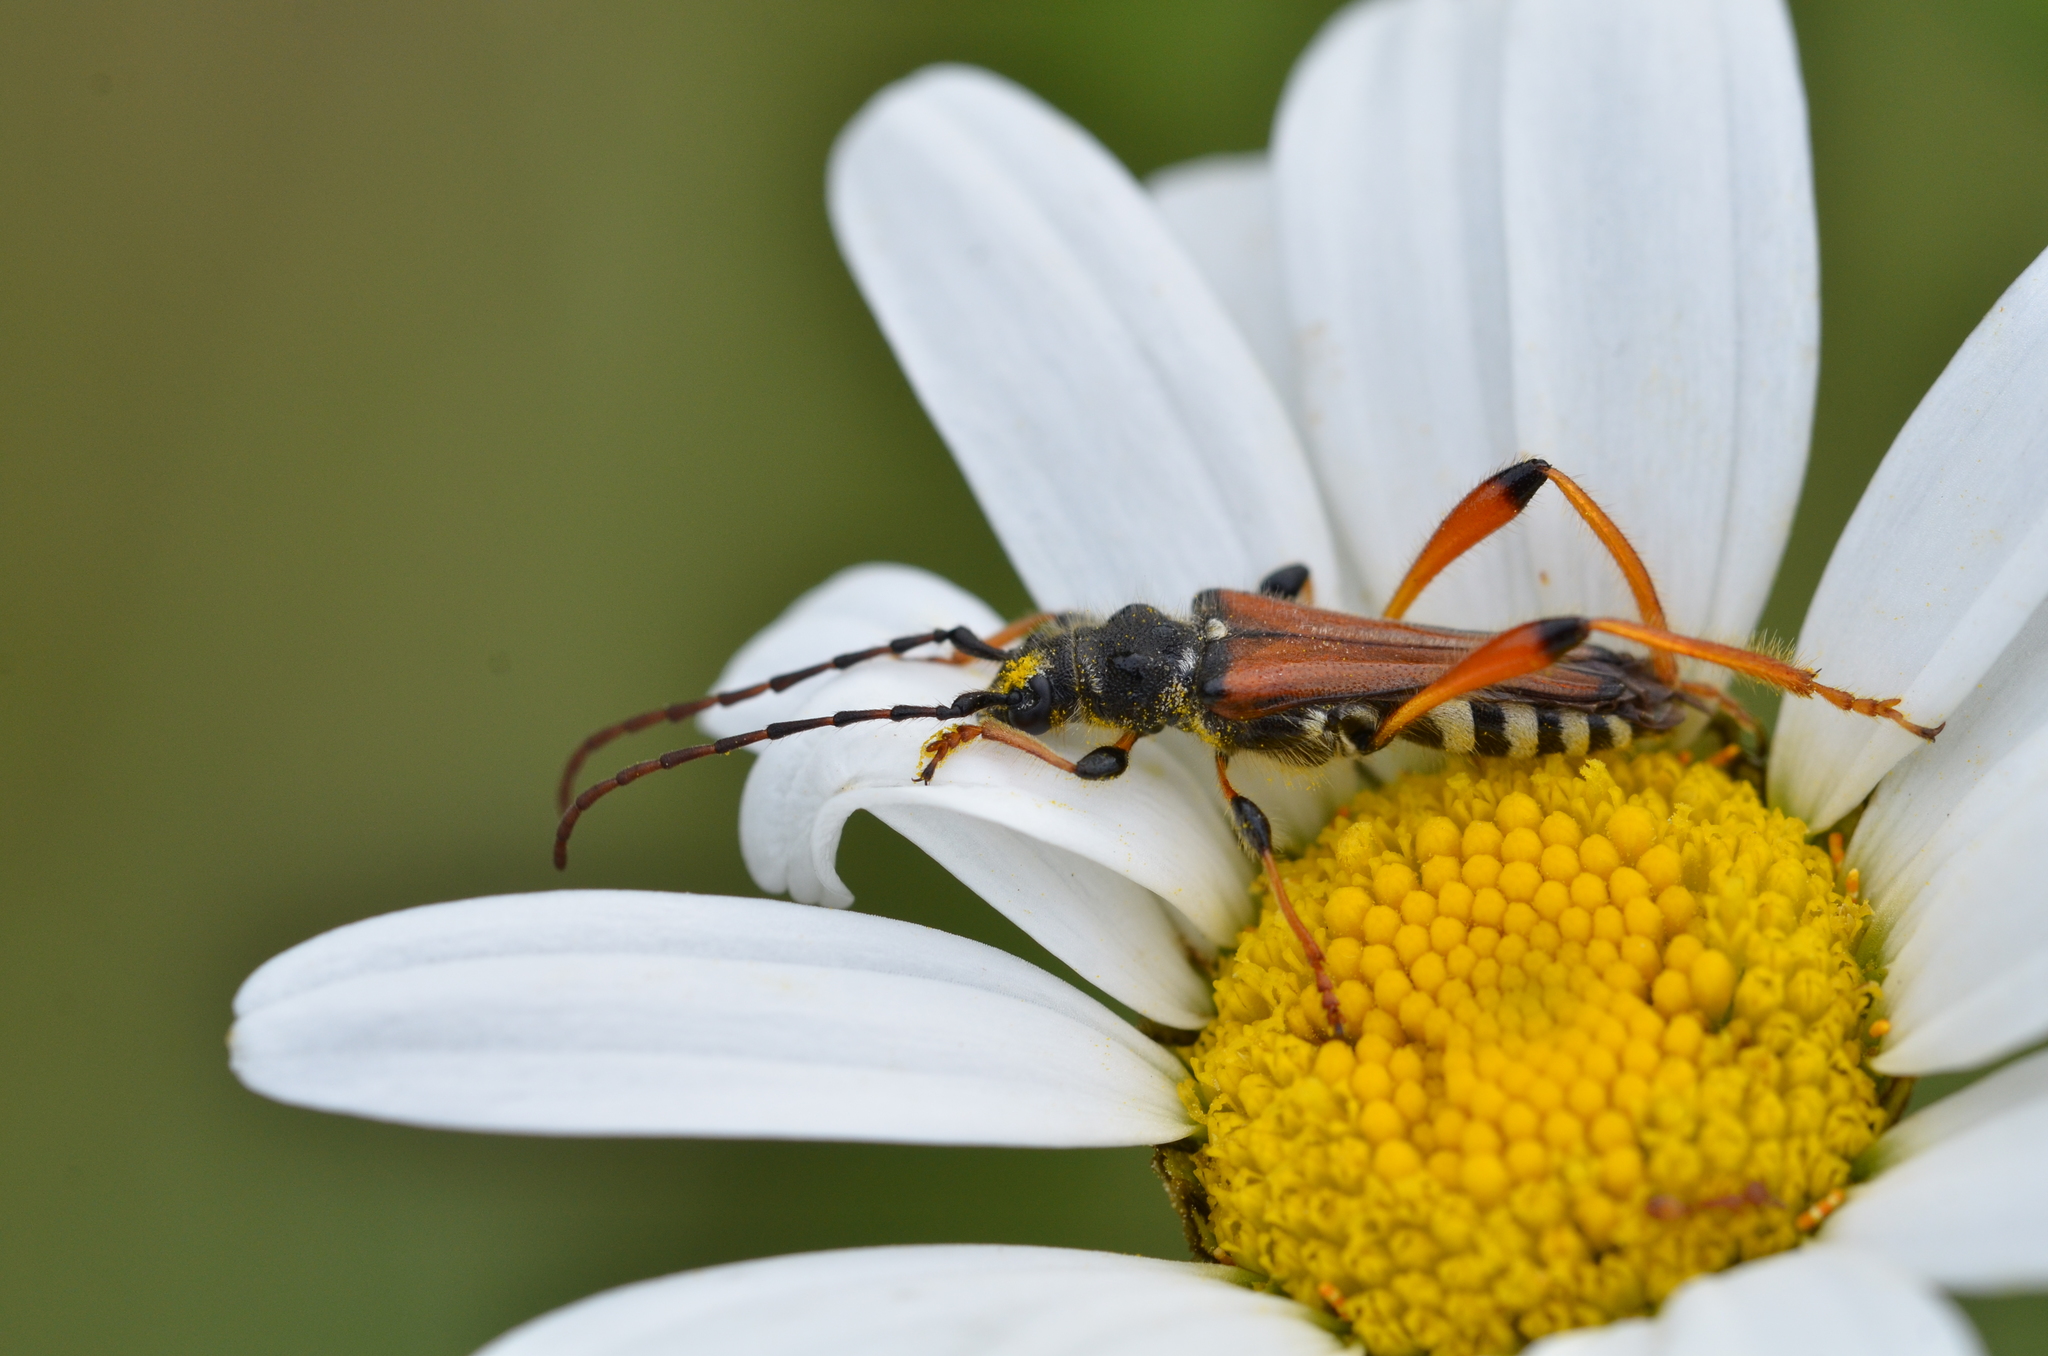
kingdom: Animalia
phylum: Arthropoda
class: Insecta
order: Coleoptera
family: Cerambycidae
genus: Stenopterus
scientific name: Stenopterus rufus
